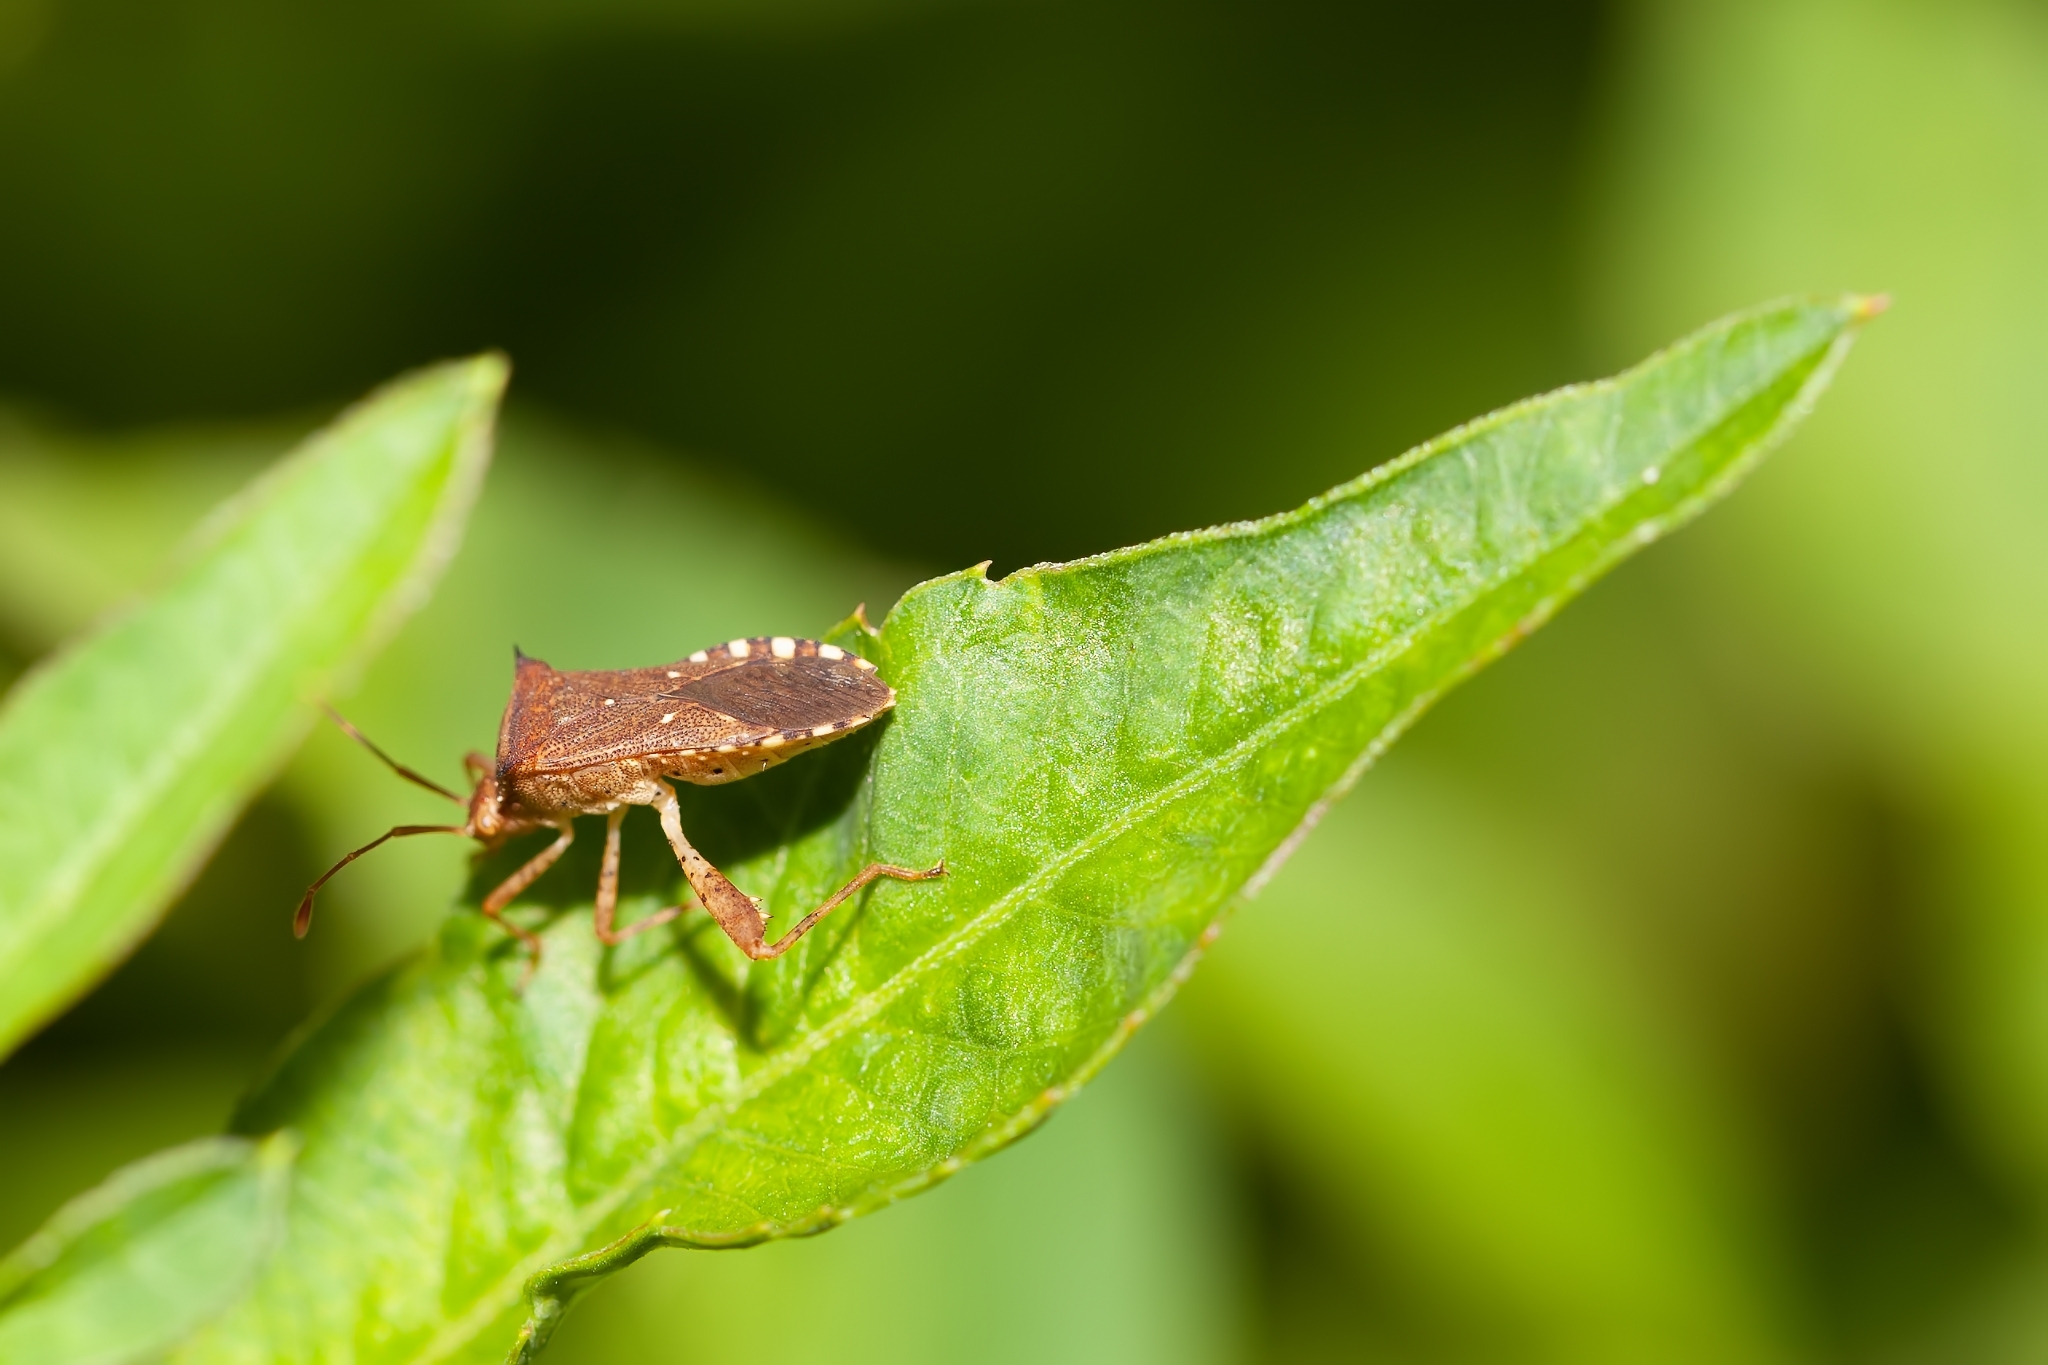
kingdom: Animalia
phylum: Arthropoda
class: Insecta
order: Hemiptera
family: Coreidae
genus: Zicca
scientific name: Zicca taeniola
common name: Leaf-footed bug
